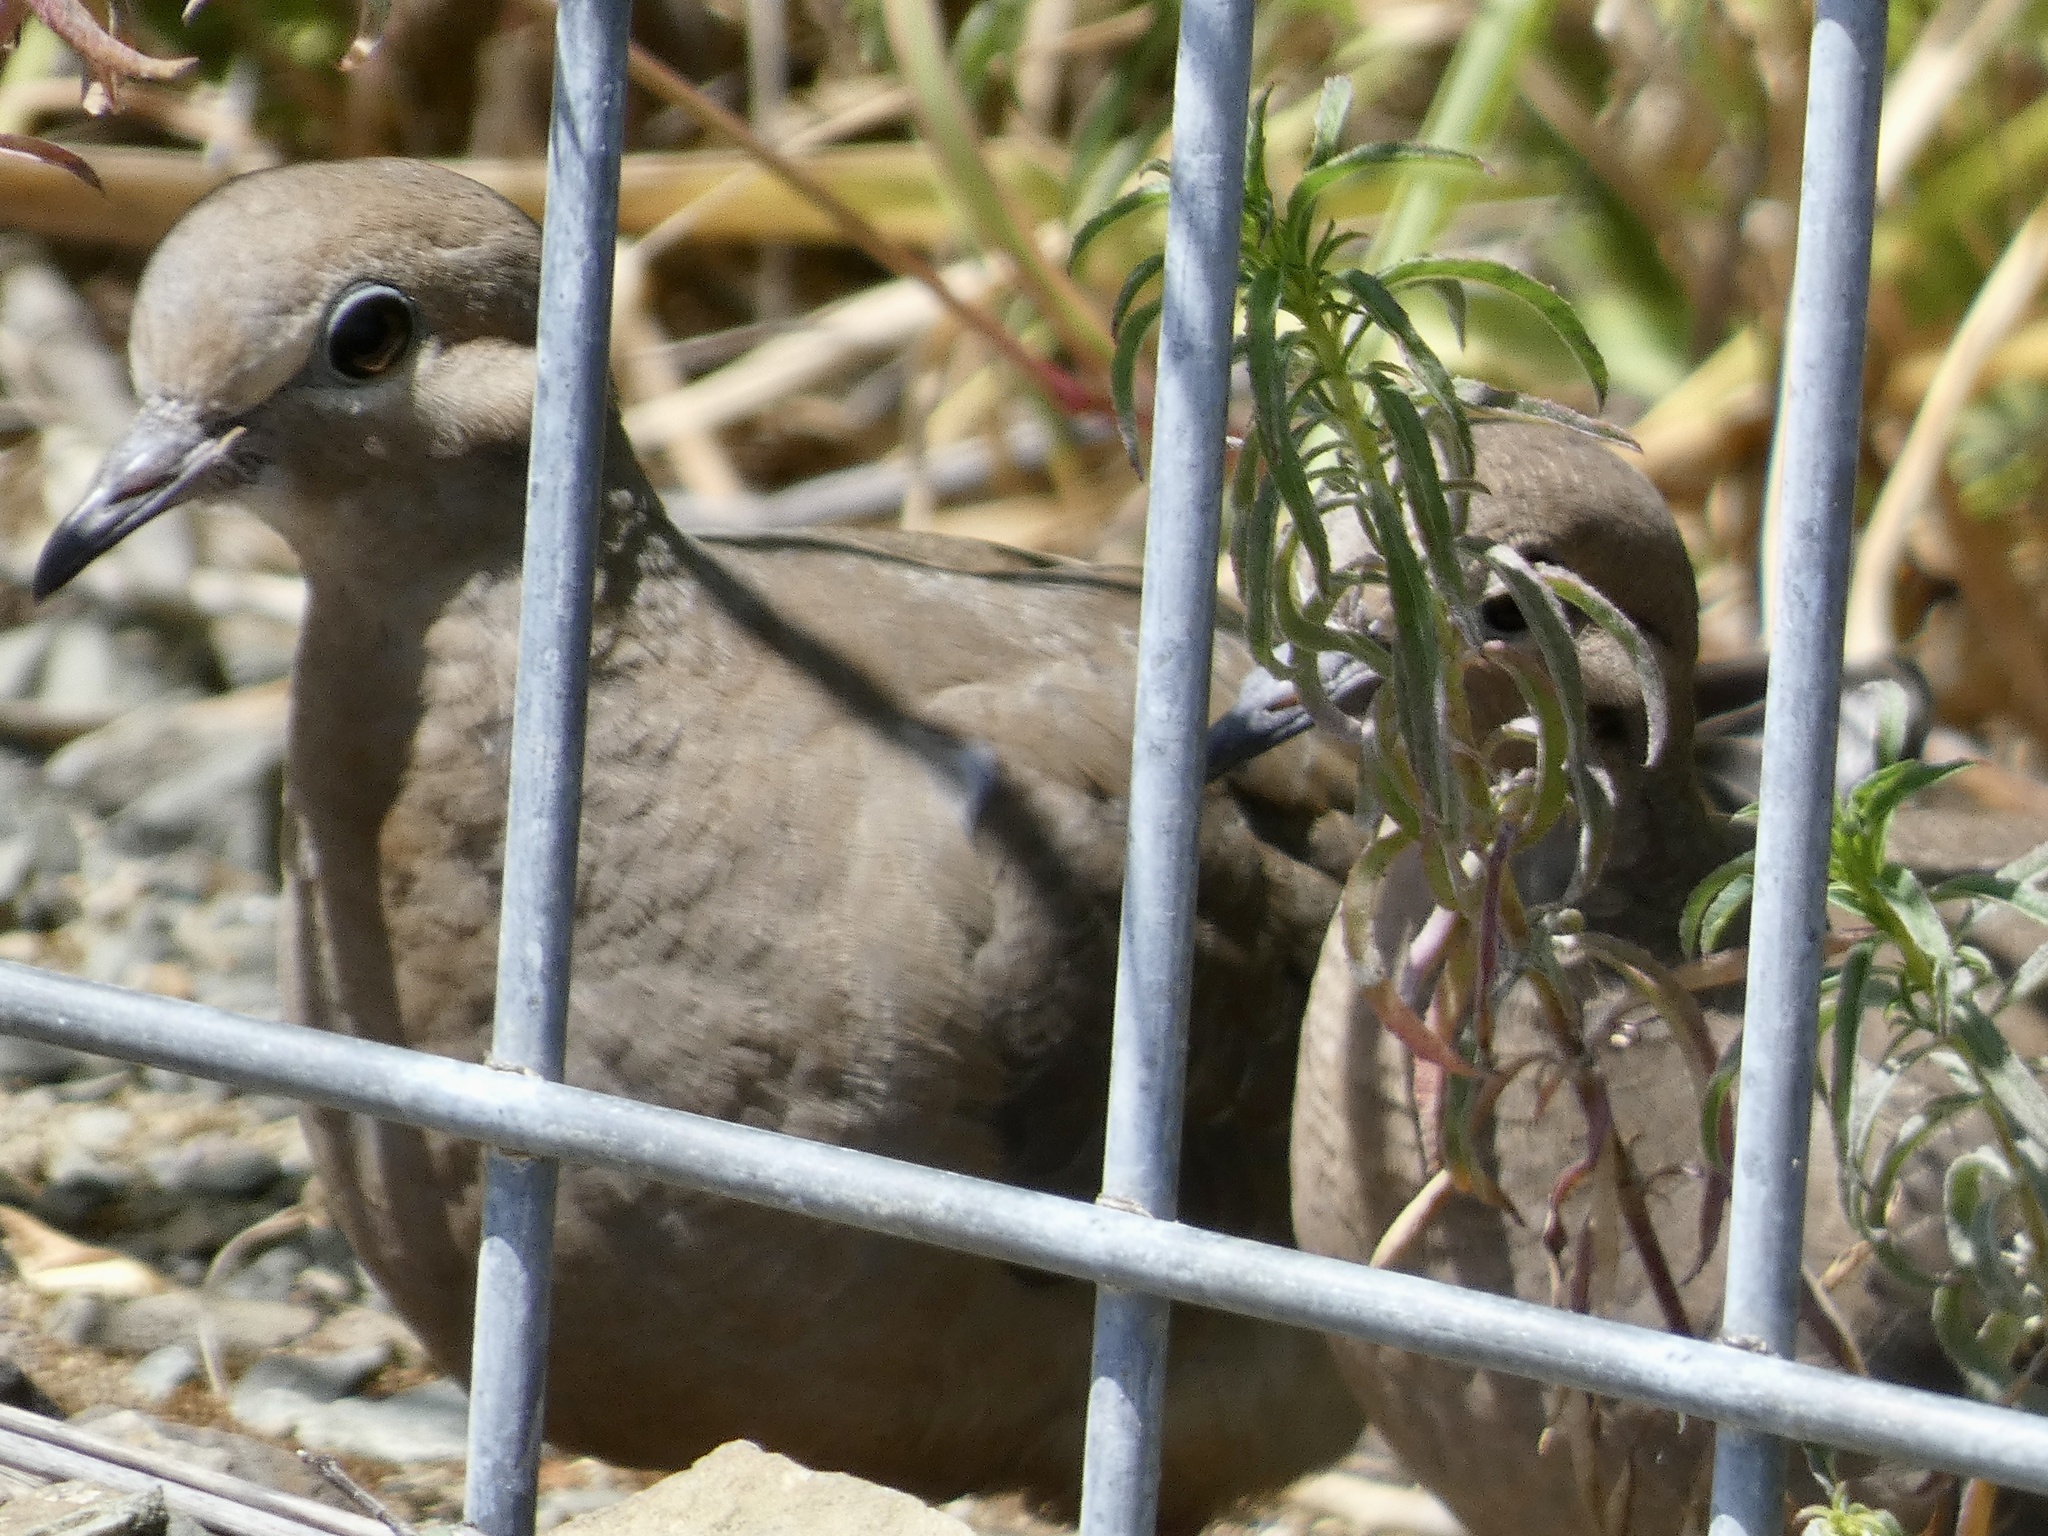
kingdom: Animalia
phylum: Chordata
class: Aves
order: Columbiformes
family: Columbidae
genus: Zenaida
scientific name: Zenaida macroura
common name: Mourning dove
